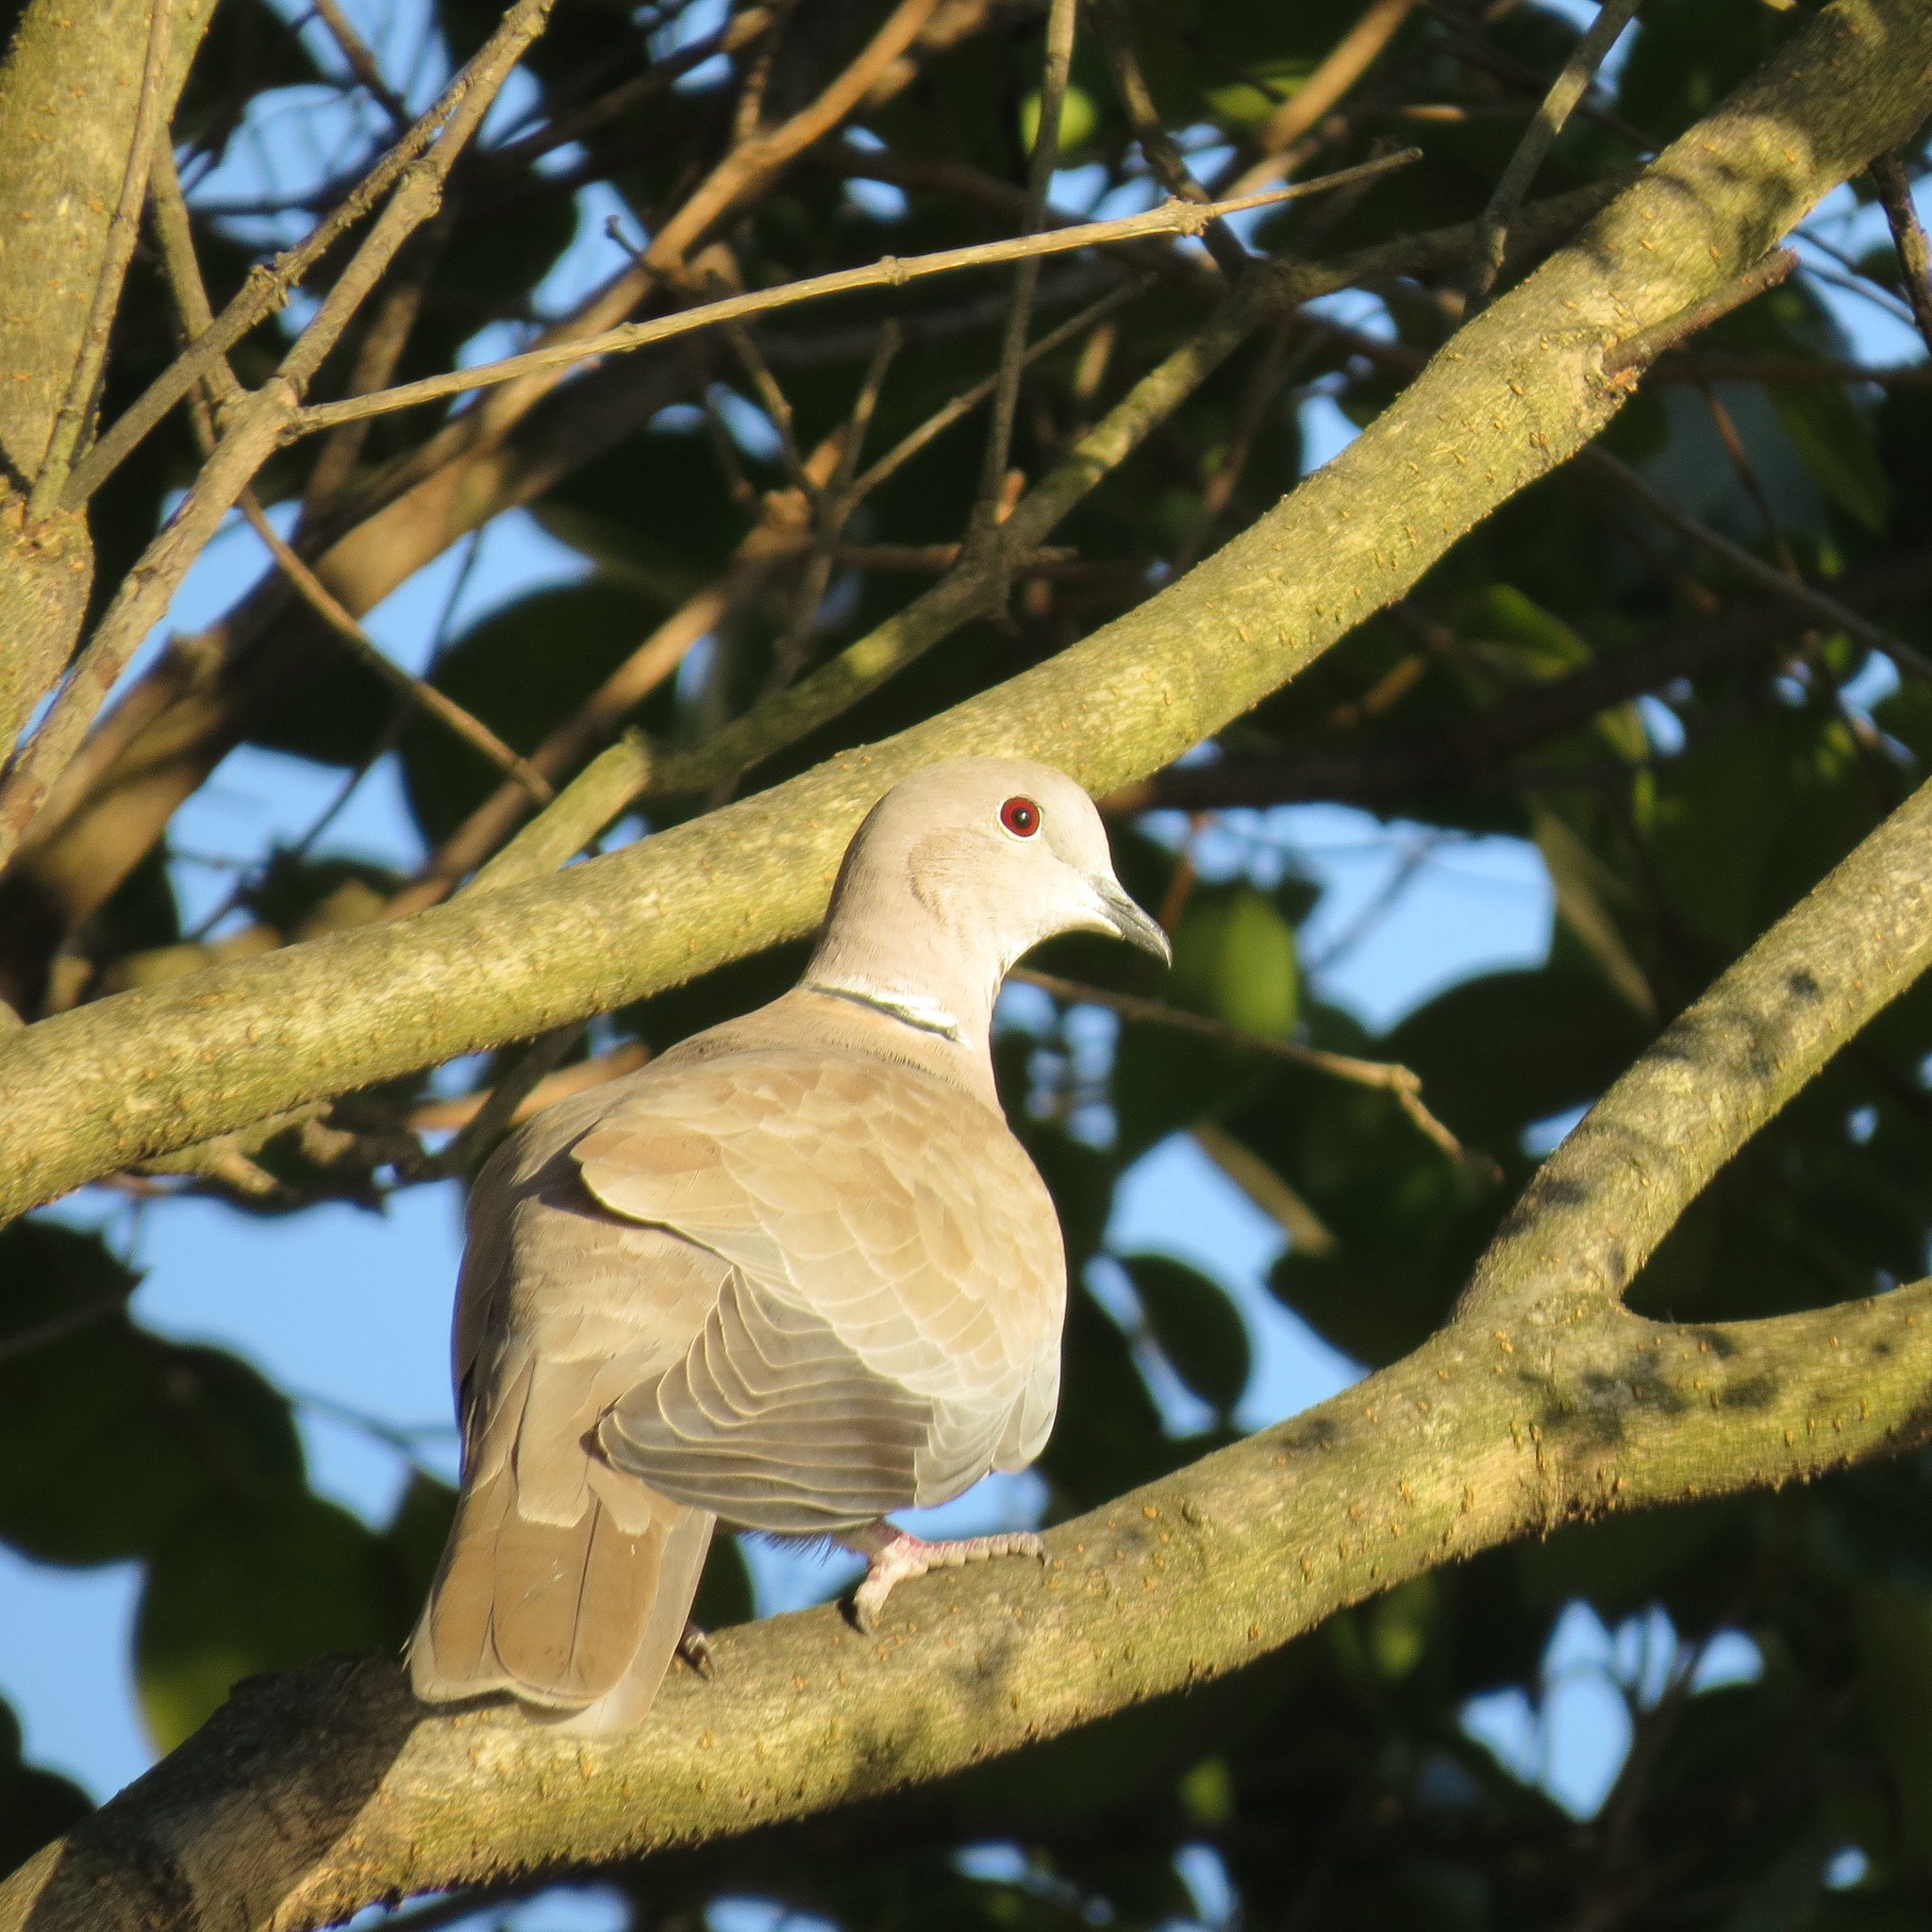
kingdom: Animalia
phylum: Chordata
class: Aves
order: Columbiformes
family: Columbidae
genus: Streptopelia
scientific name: Streptopelia decaocto
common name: Eurasian collared dove
